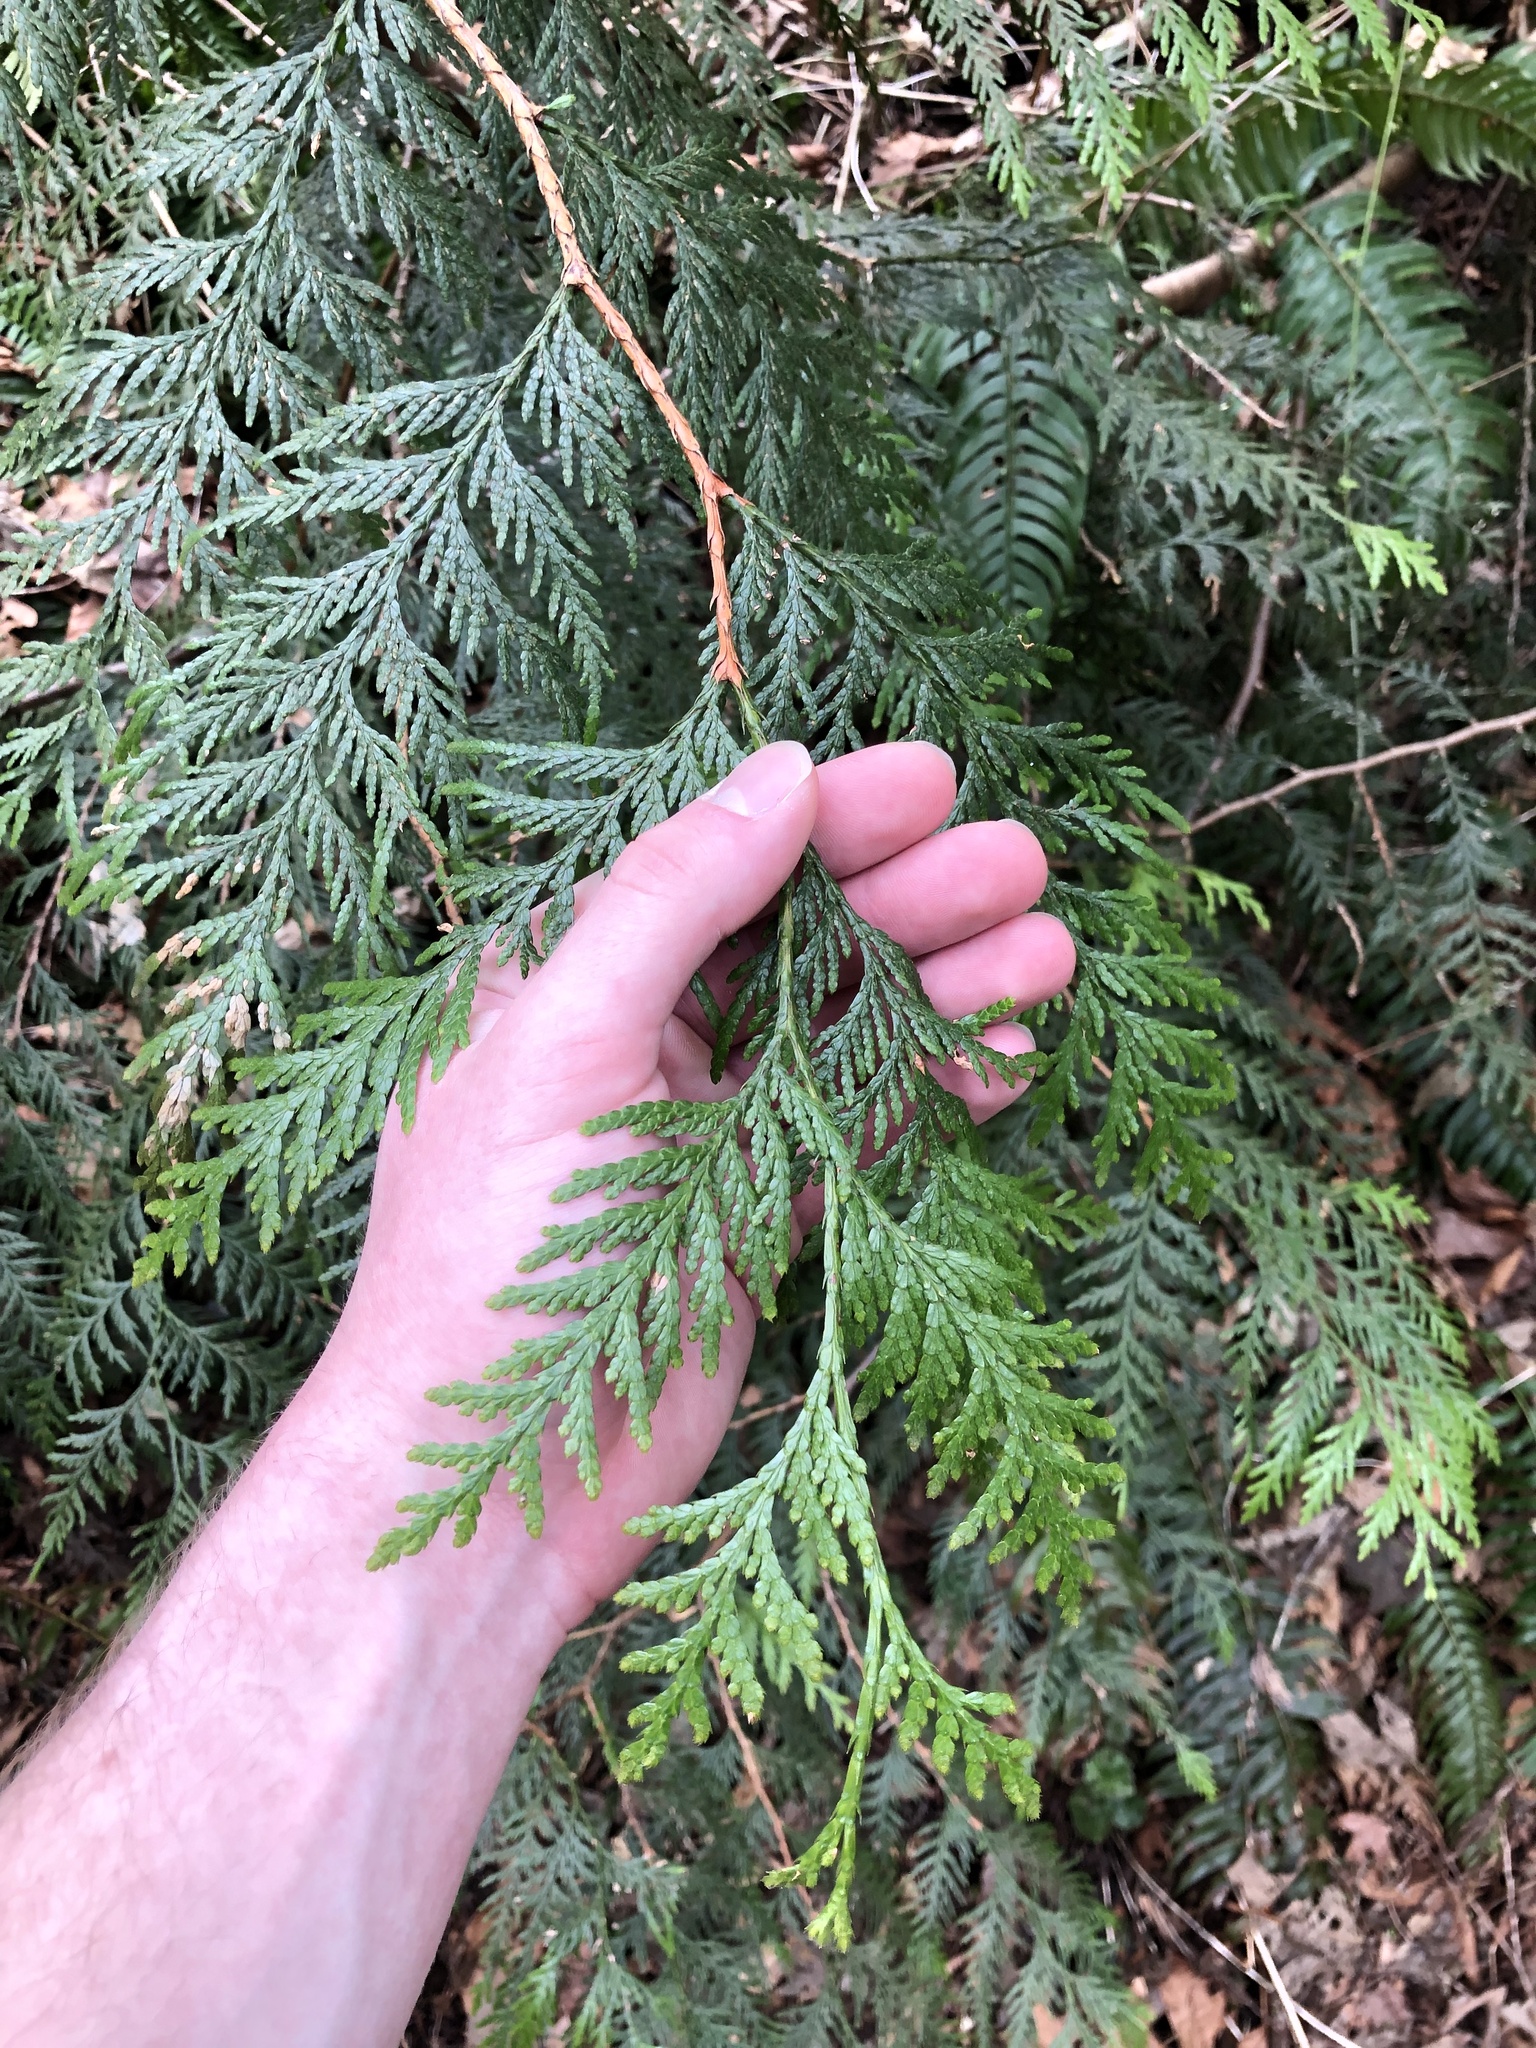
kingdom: Plantae
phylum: Tracheophyta
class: Pinopsida
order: Pinales
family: Cupressaceae
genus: Thuja
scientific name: Thuja plicata
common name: Western red-cedar
